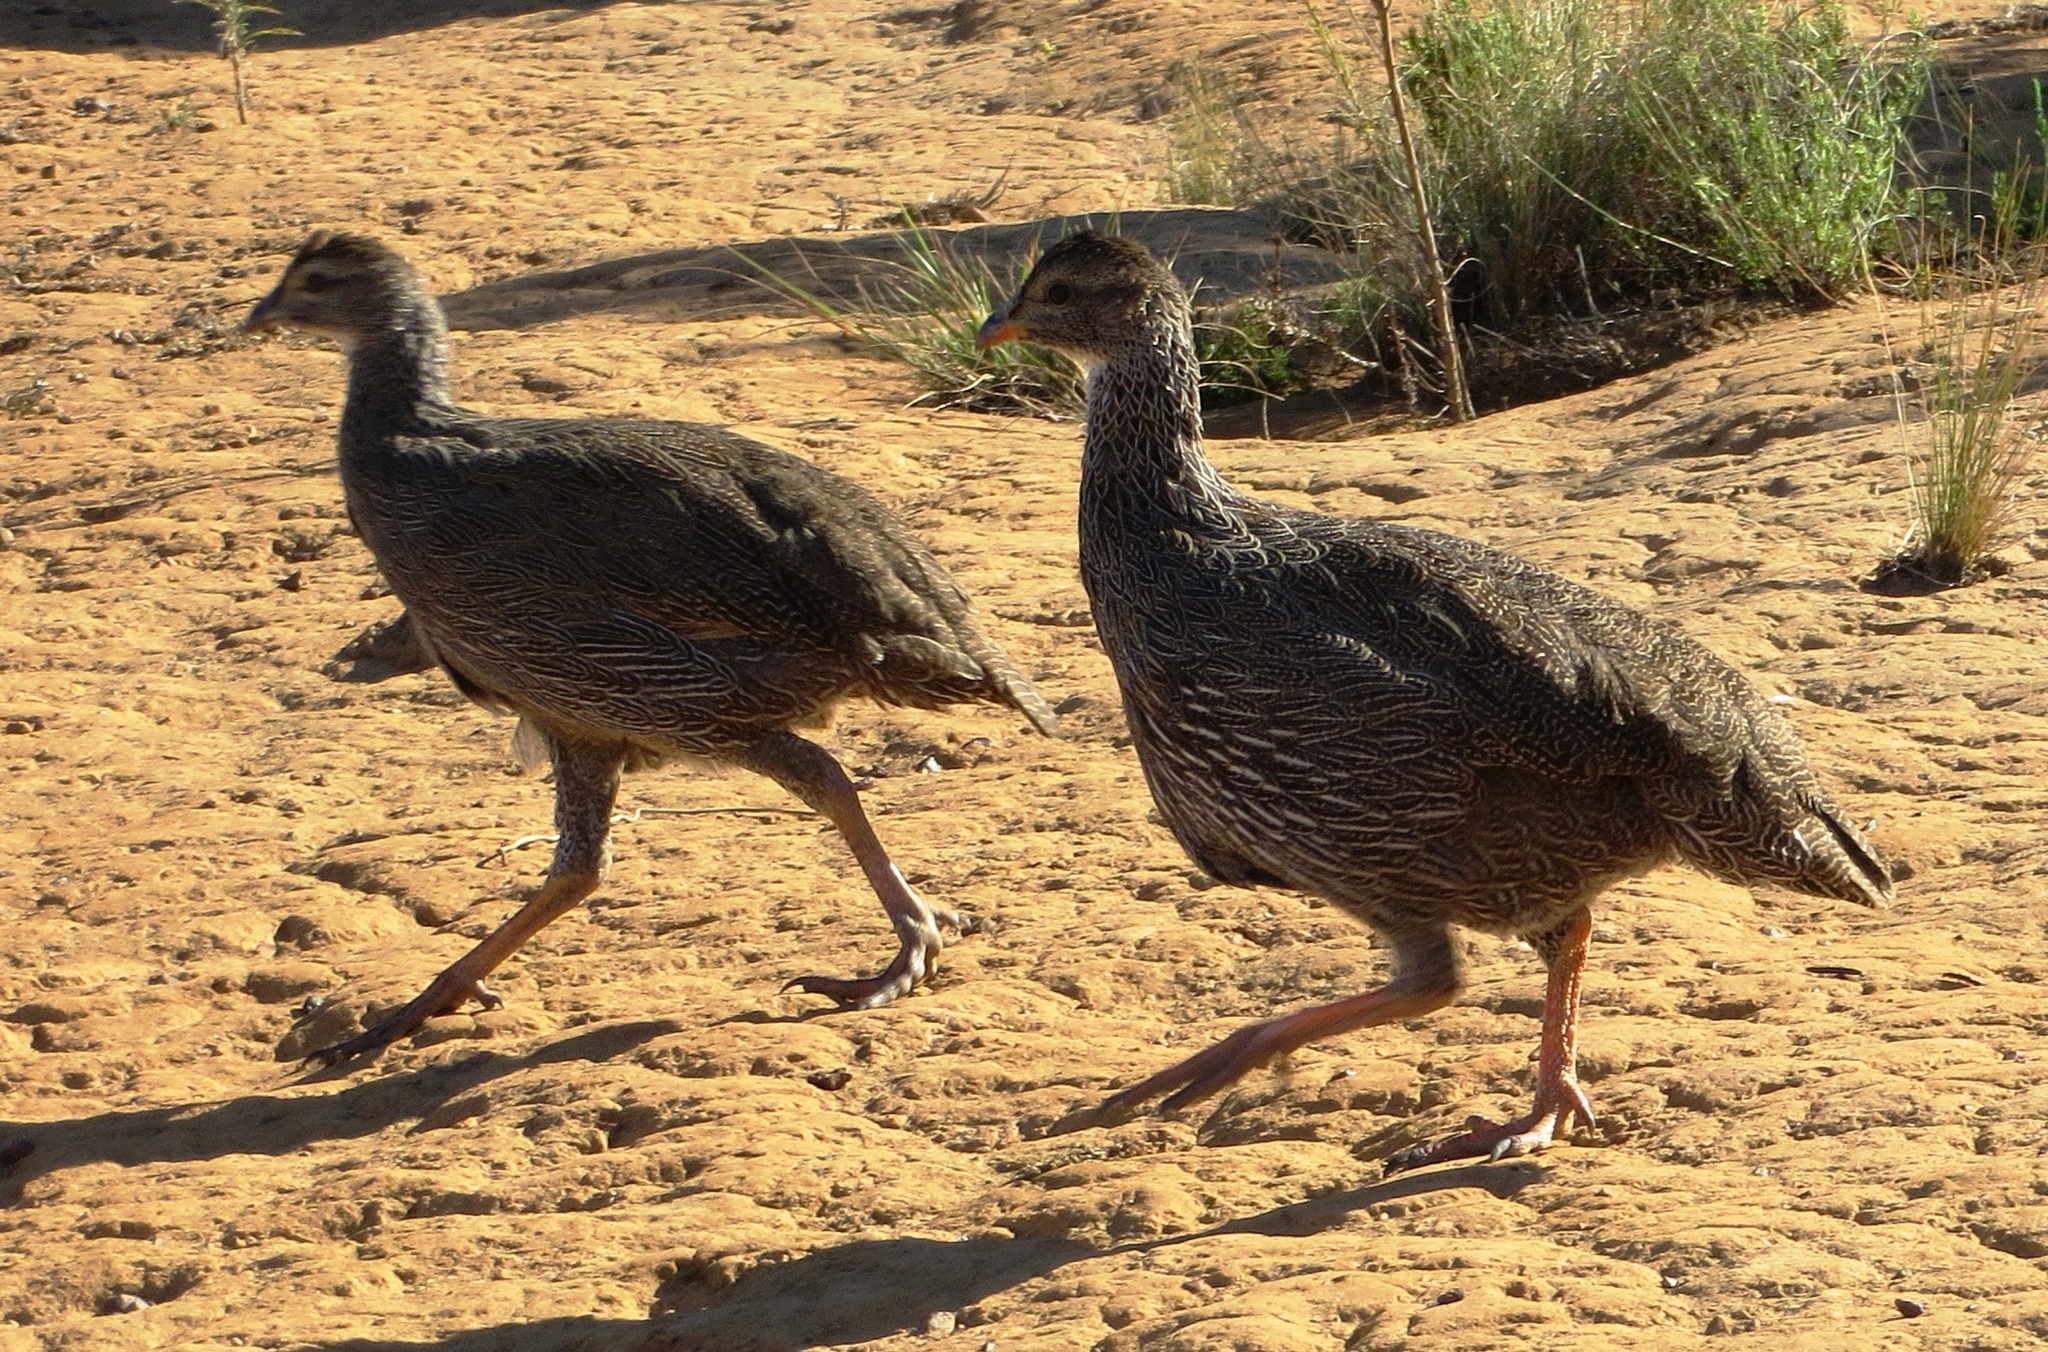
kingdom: Animalia
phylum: Chordata
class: Aves
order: Galliformes
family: Phasianidae
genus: Pternistis
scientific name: Pternistis capensis
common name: Cape spurfowl
